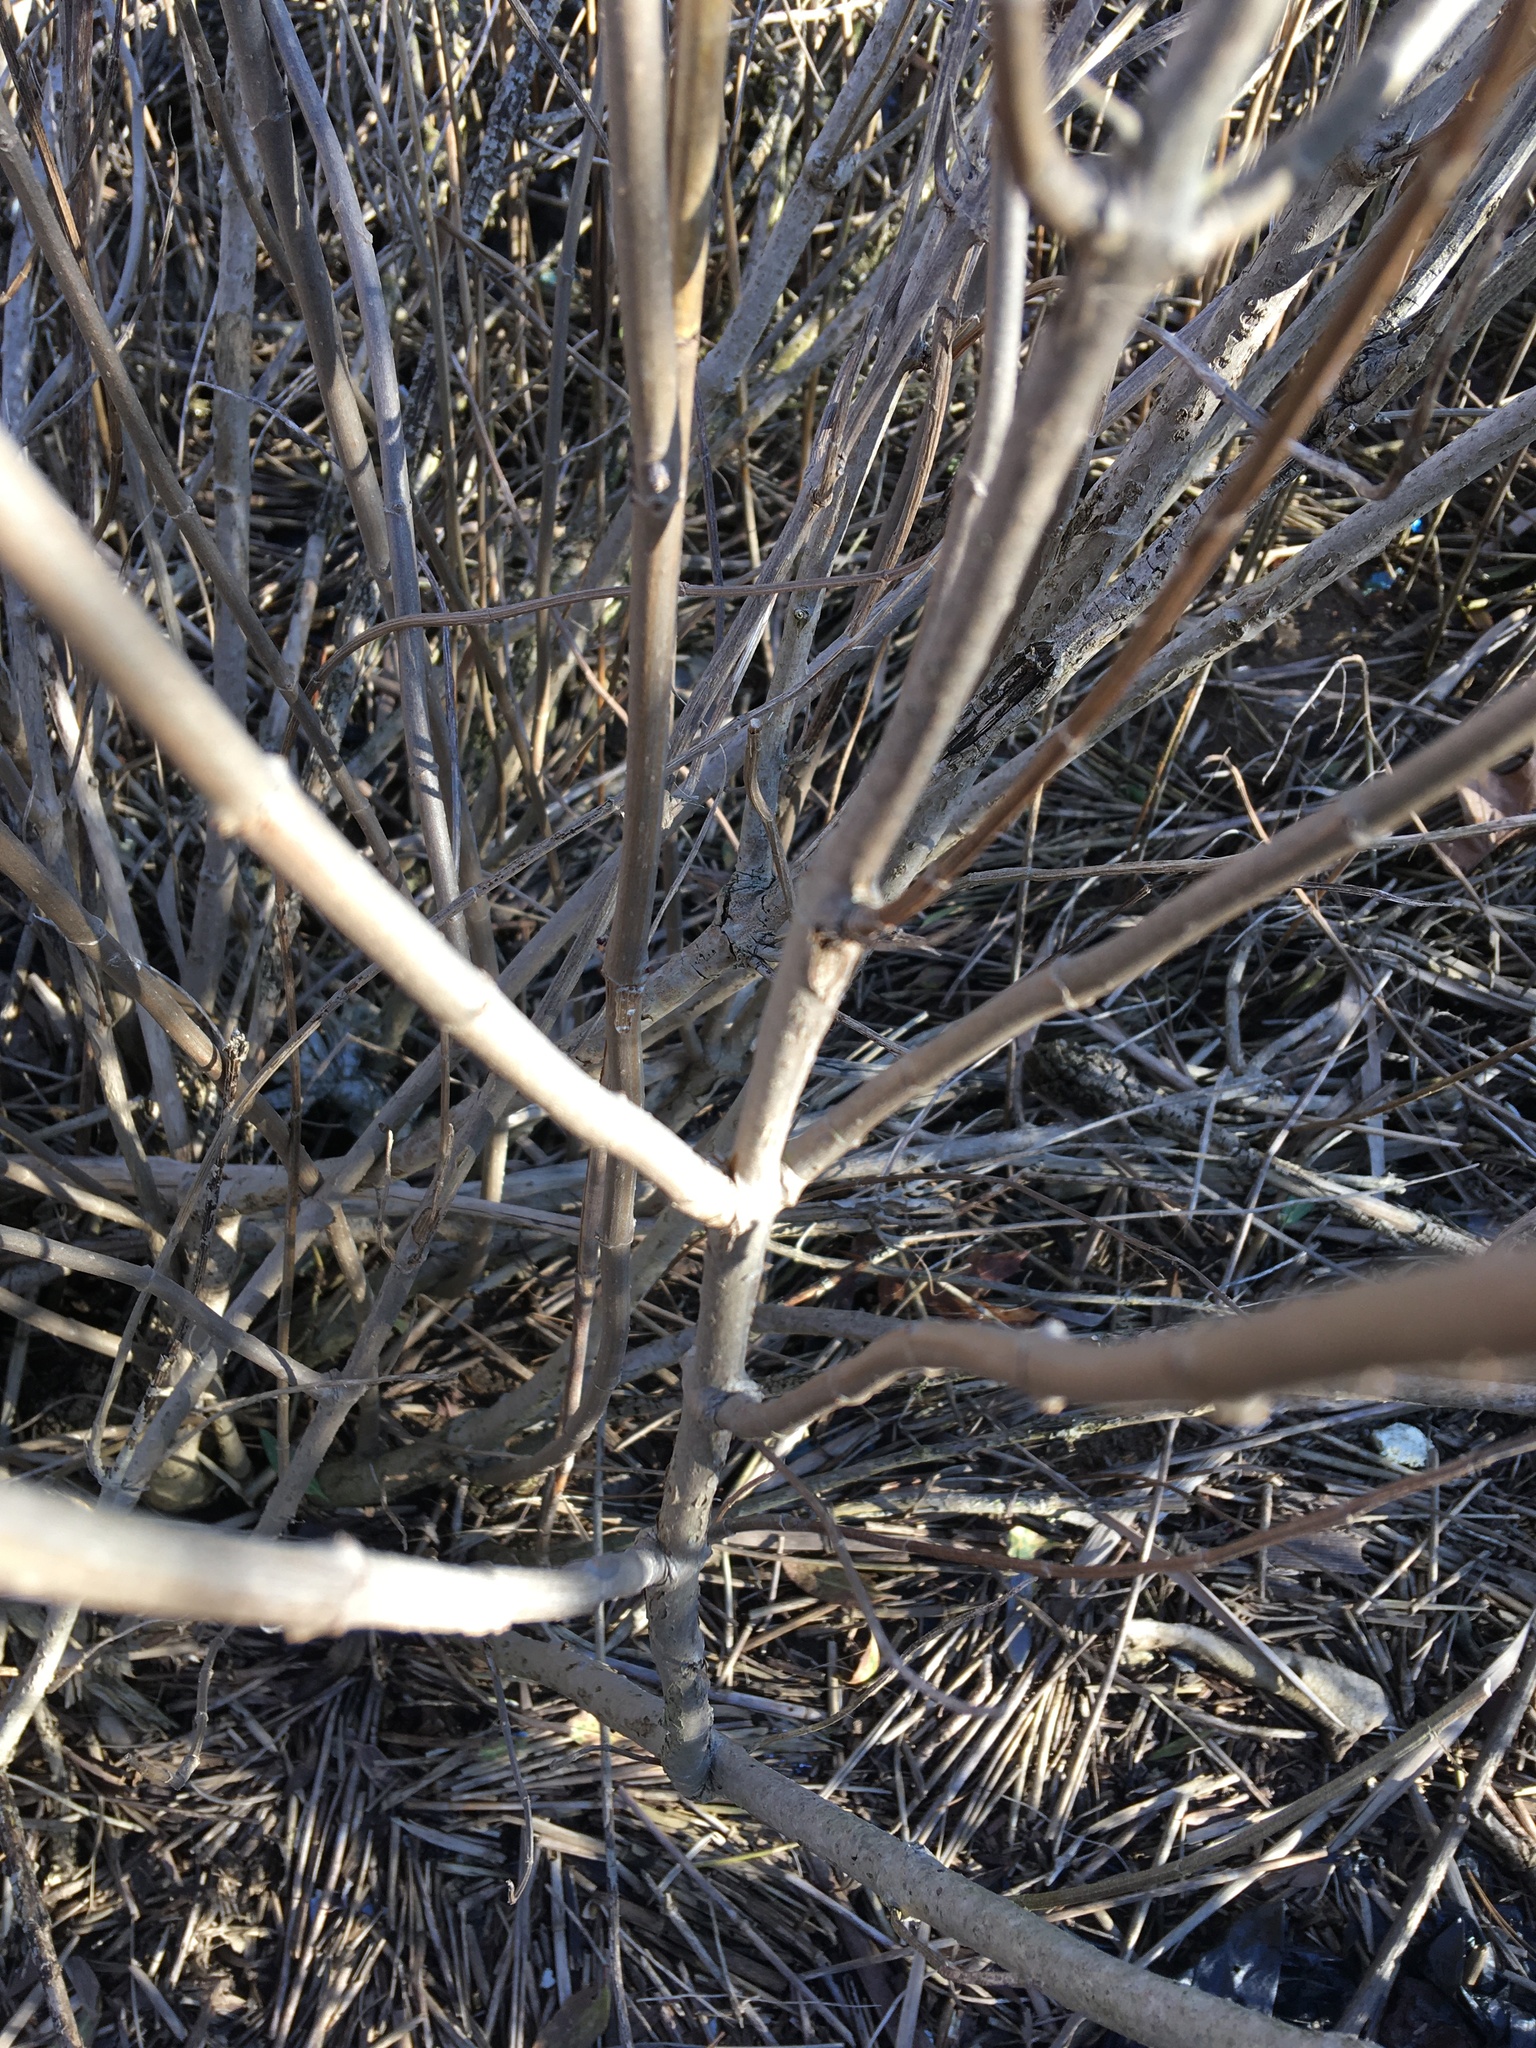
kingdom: Plantae
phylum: Tracheophyta
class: Magnoliopsida
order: Asterales
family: Asteraceae
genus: Iva
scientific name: Iva frutescens
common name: Big-leaved marsh-elder
